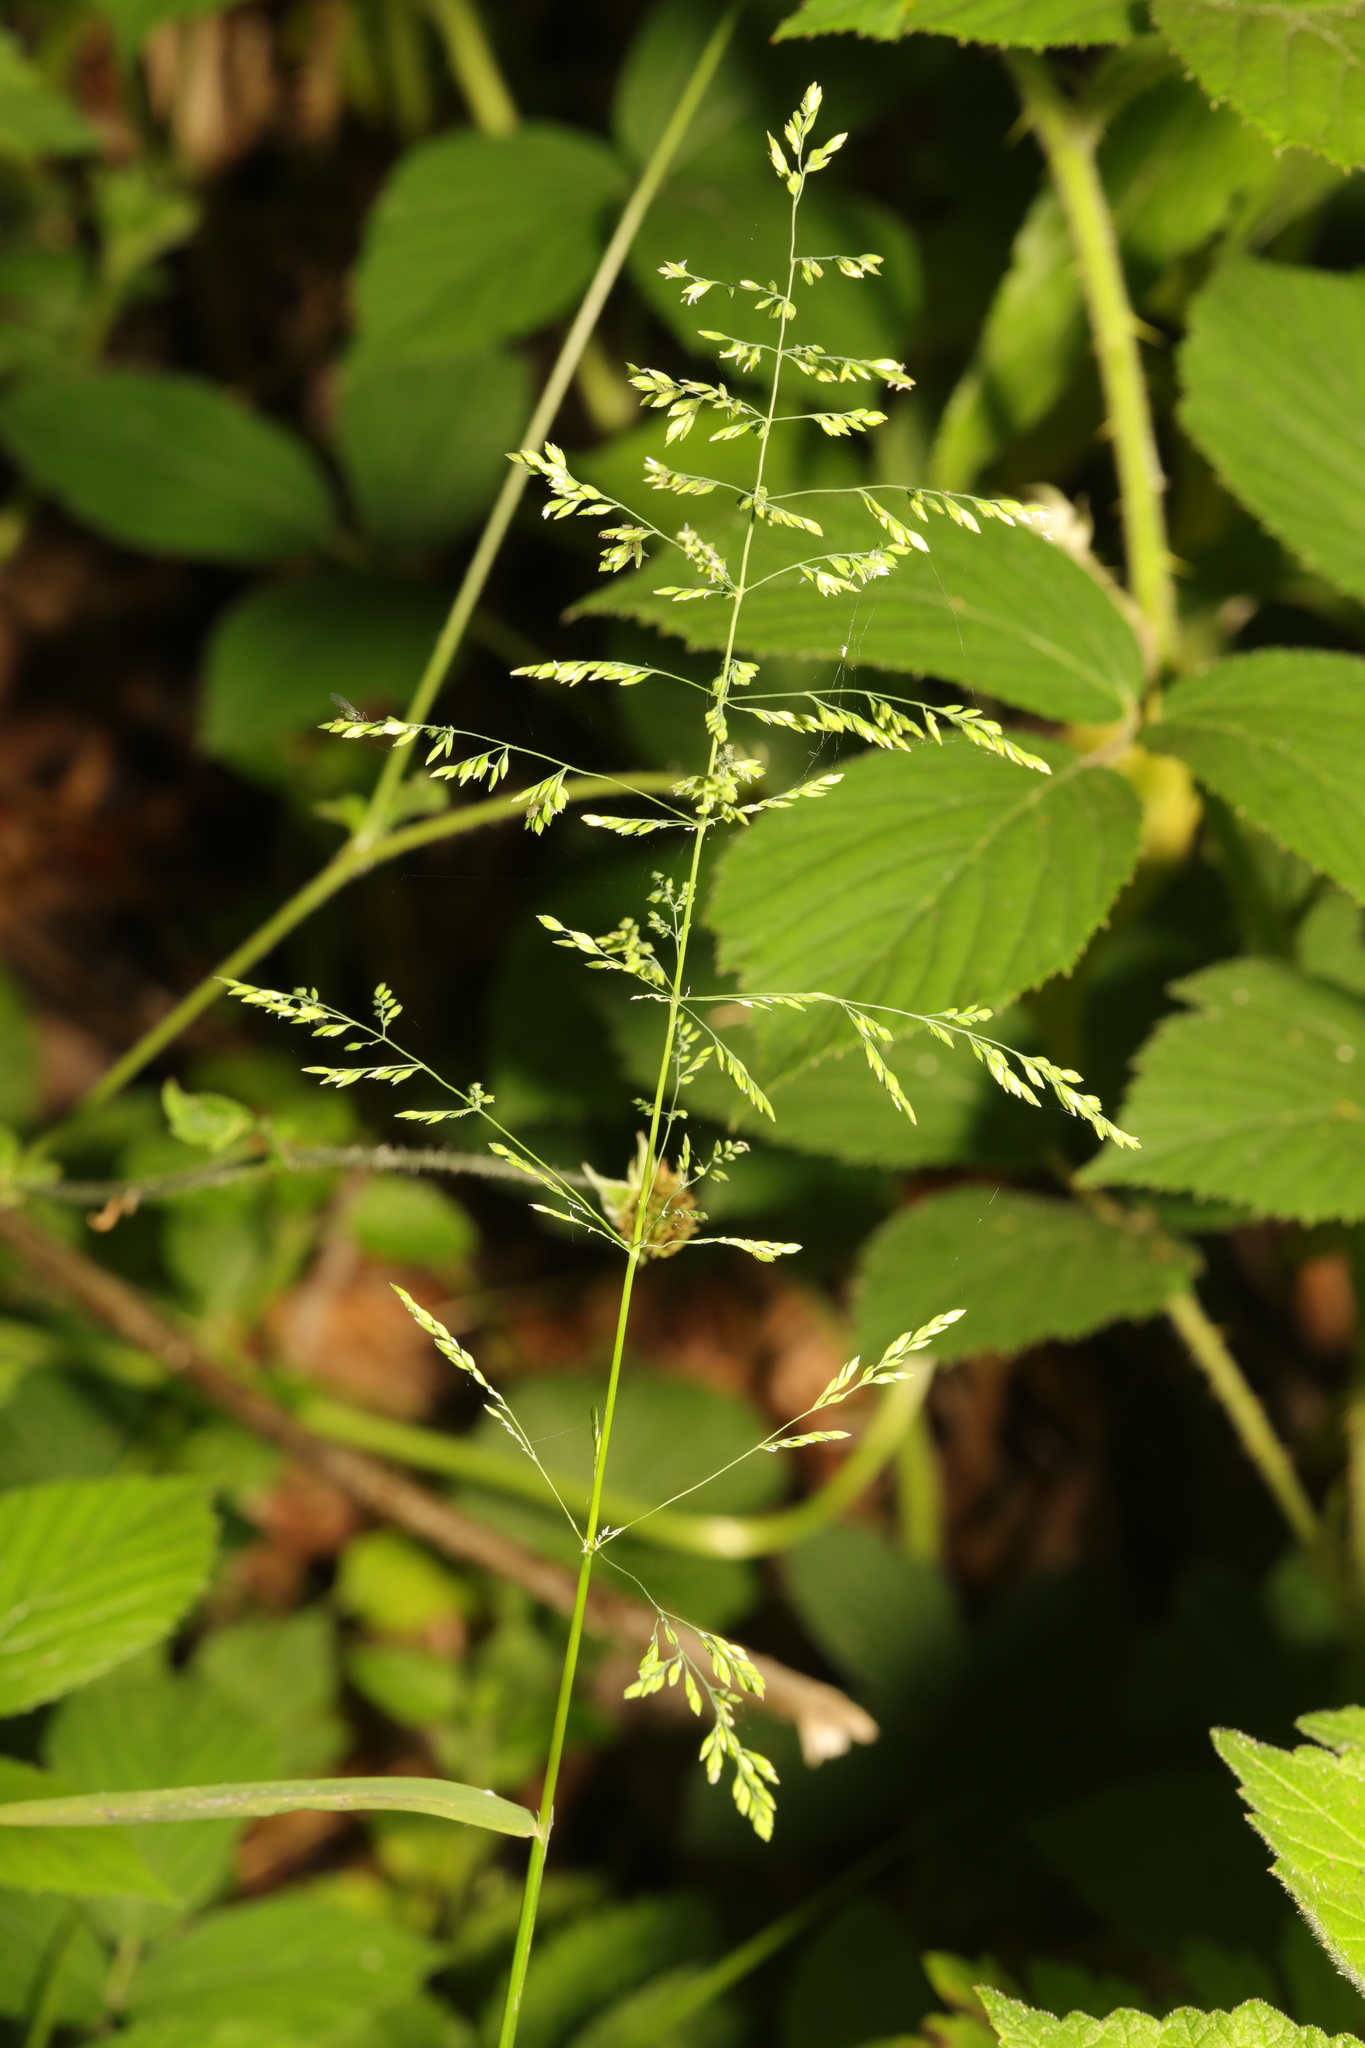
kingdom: Plantae
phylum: Tracheophyta
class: Liliopsida
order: Poales
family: Poaceae
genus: Poa
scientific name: Poa trivialis
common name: Rough bluegrass
